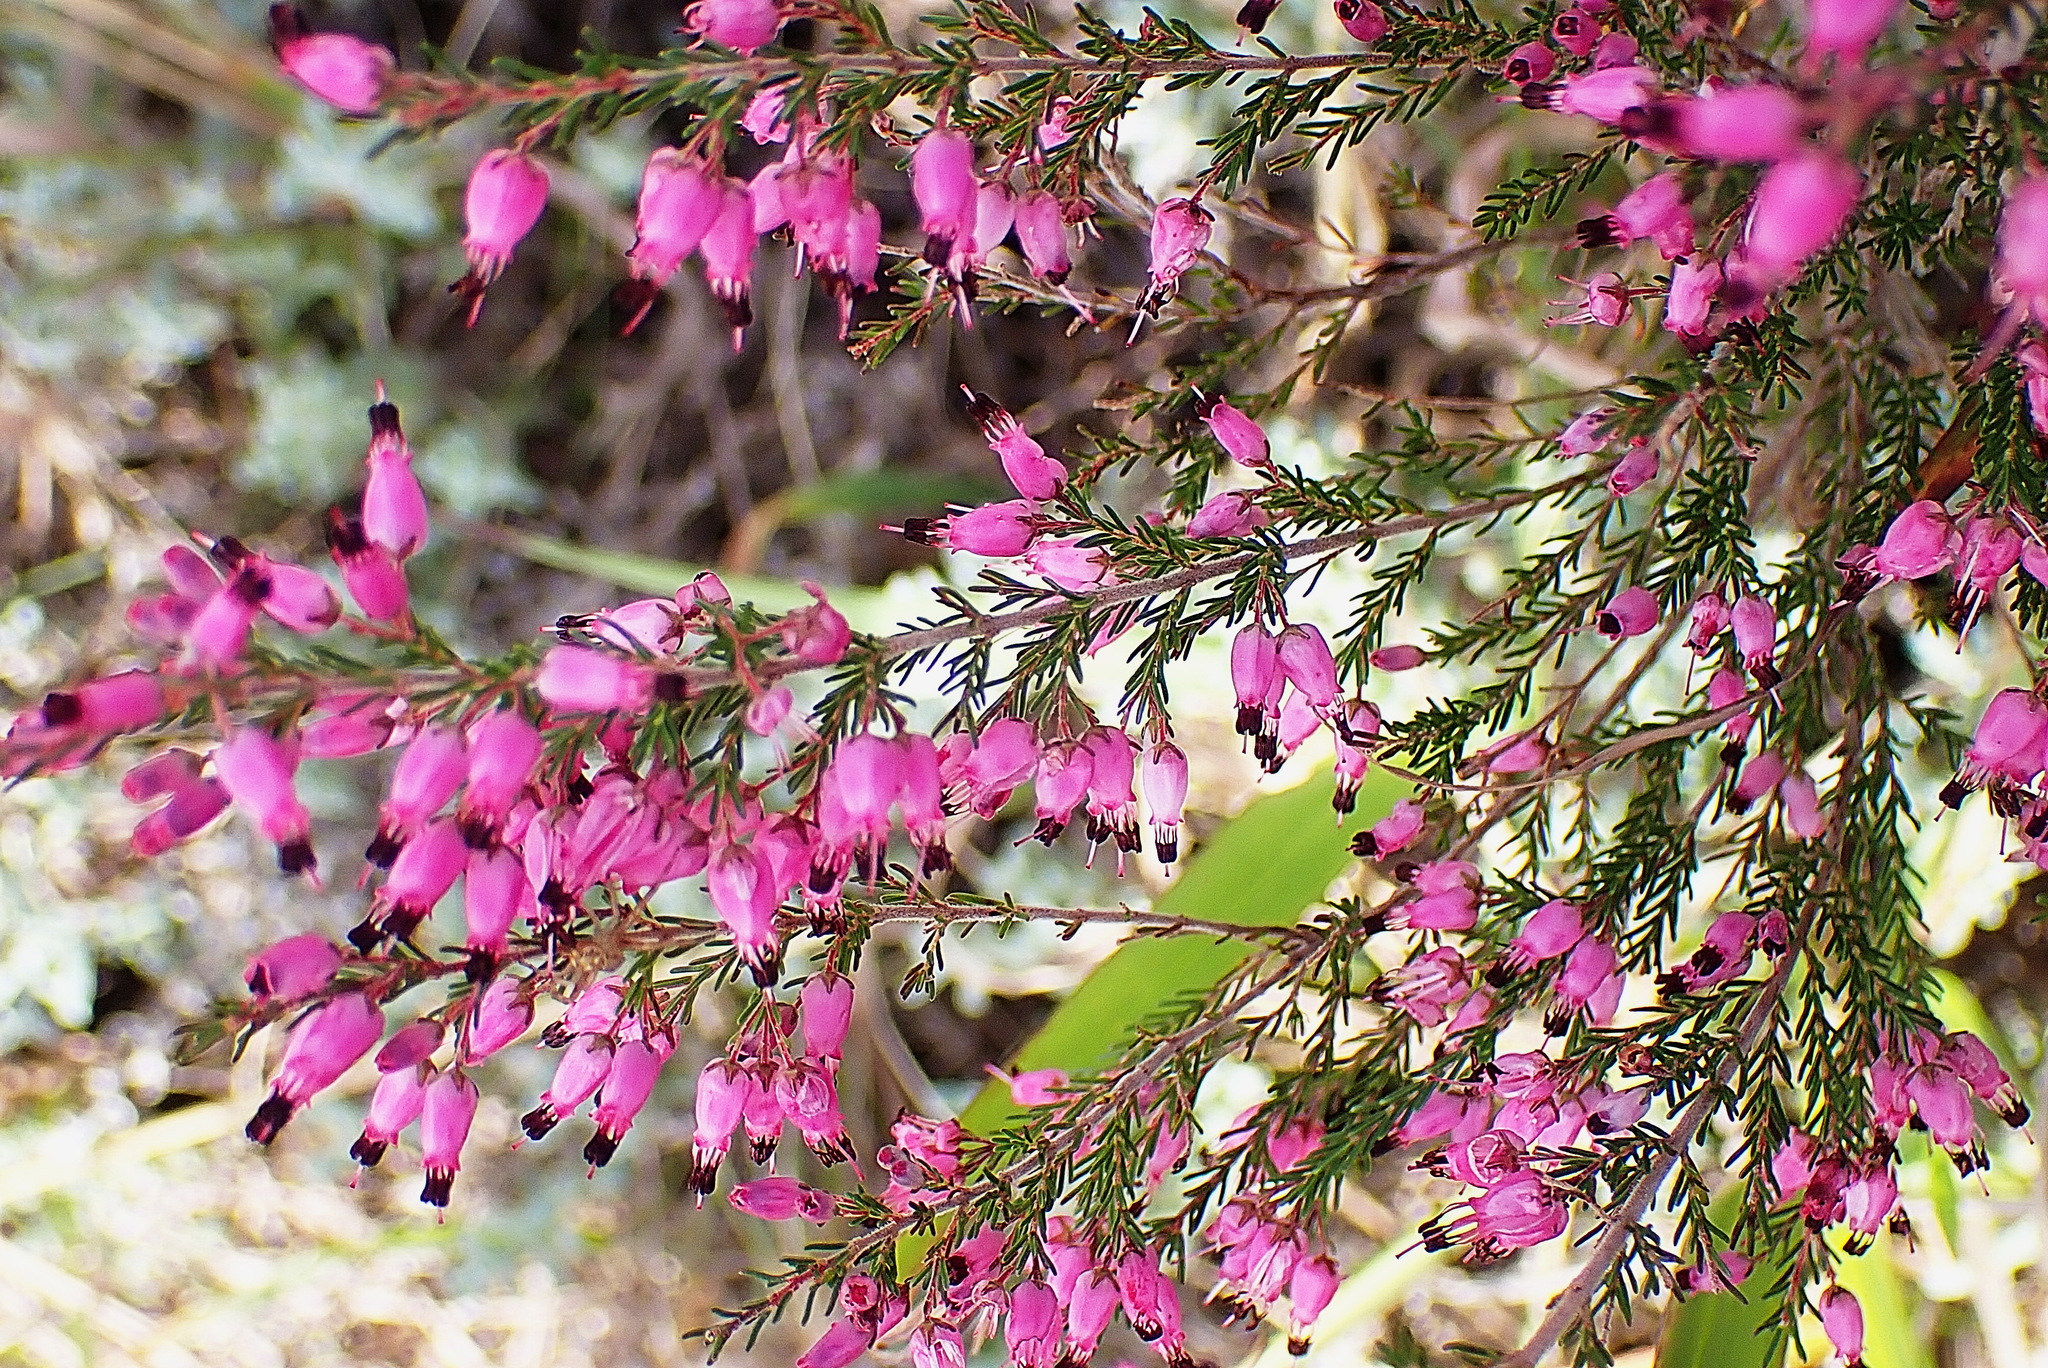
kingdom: Plantae
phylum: Tracheophyta
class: Magnoliopsida
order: Ericales
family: Ericaceae
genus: Erica
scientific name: Erica nutans
